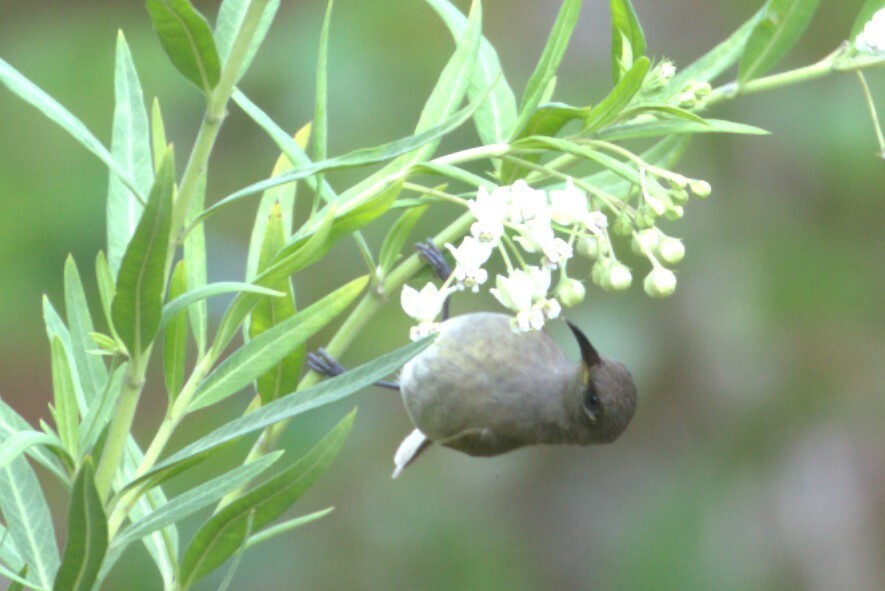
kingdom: Animalia
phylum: Chordata
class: Aves
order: Passeriformes
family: Meliphagidae
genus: Lichmera
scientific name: Lichmera indistincta
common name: Brown honeyeater
